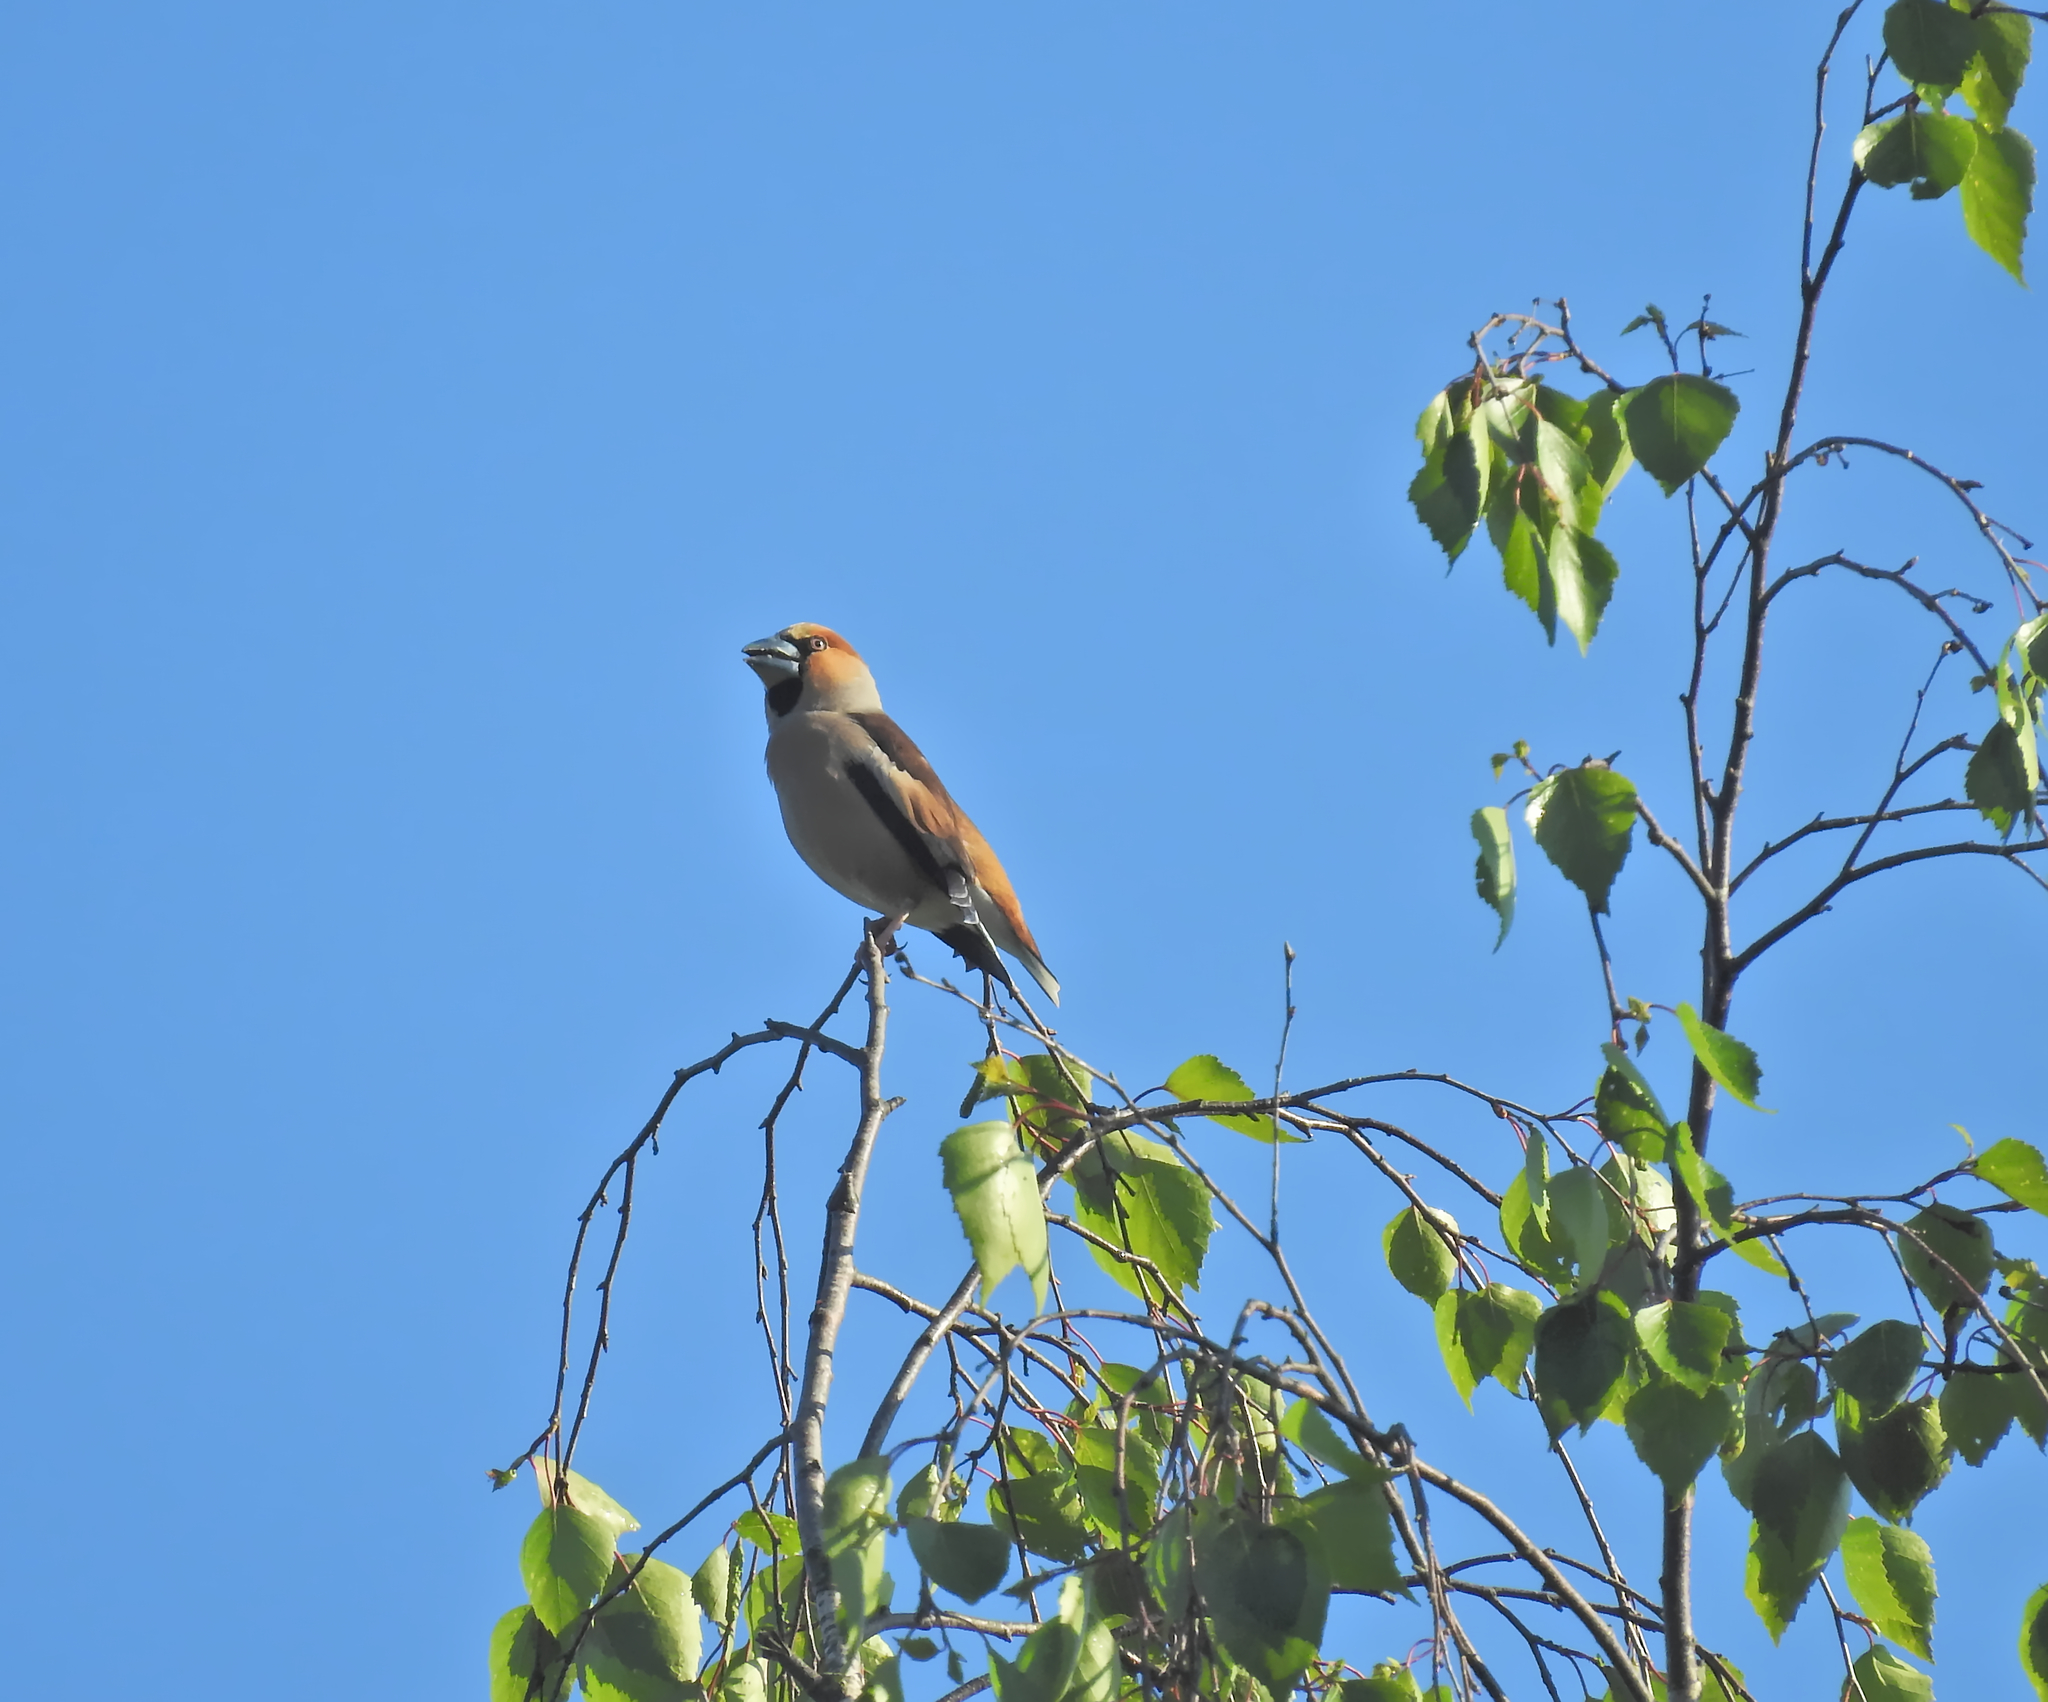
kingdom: Animalia
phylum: Chordata
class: Aves
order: Passeriformes
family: Fringillidae
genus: Coccothraustes
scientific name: Coccothraustes coccothraustes
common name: Hawfinch
